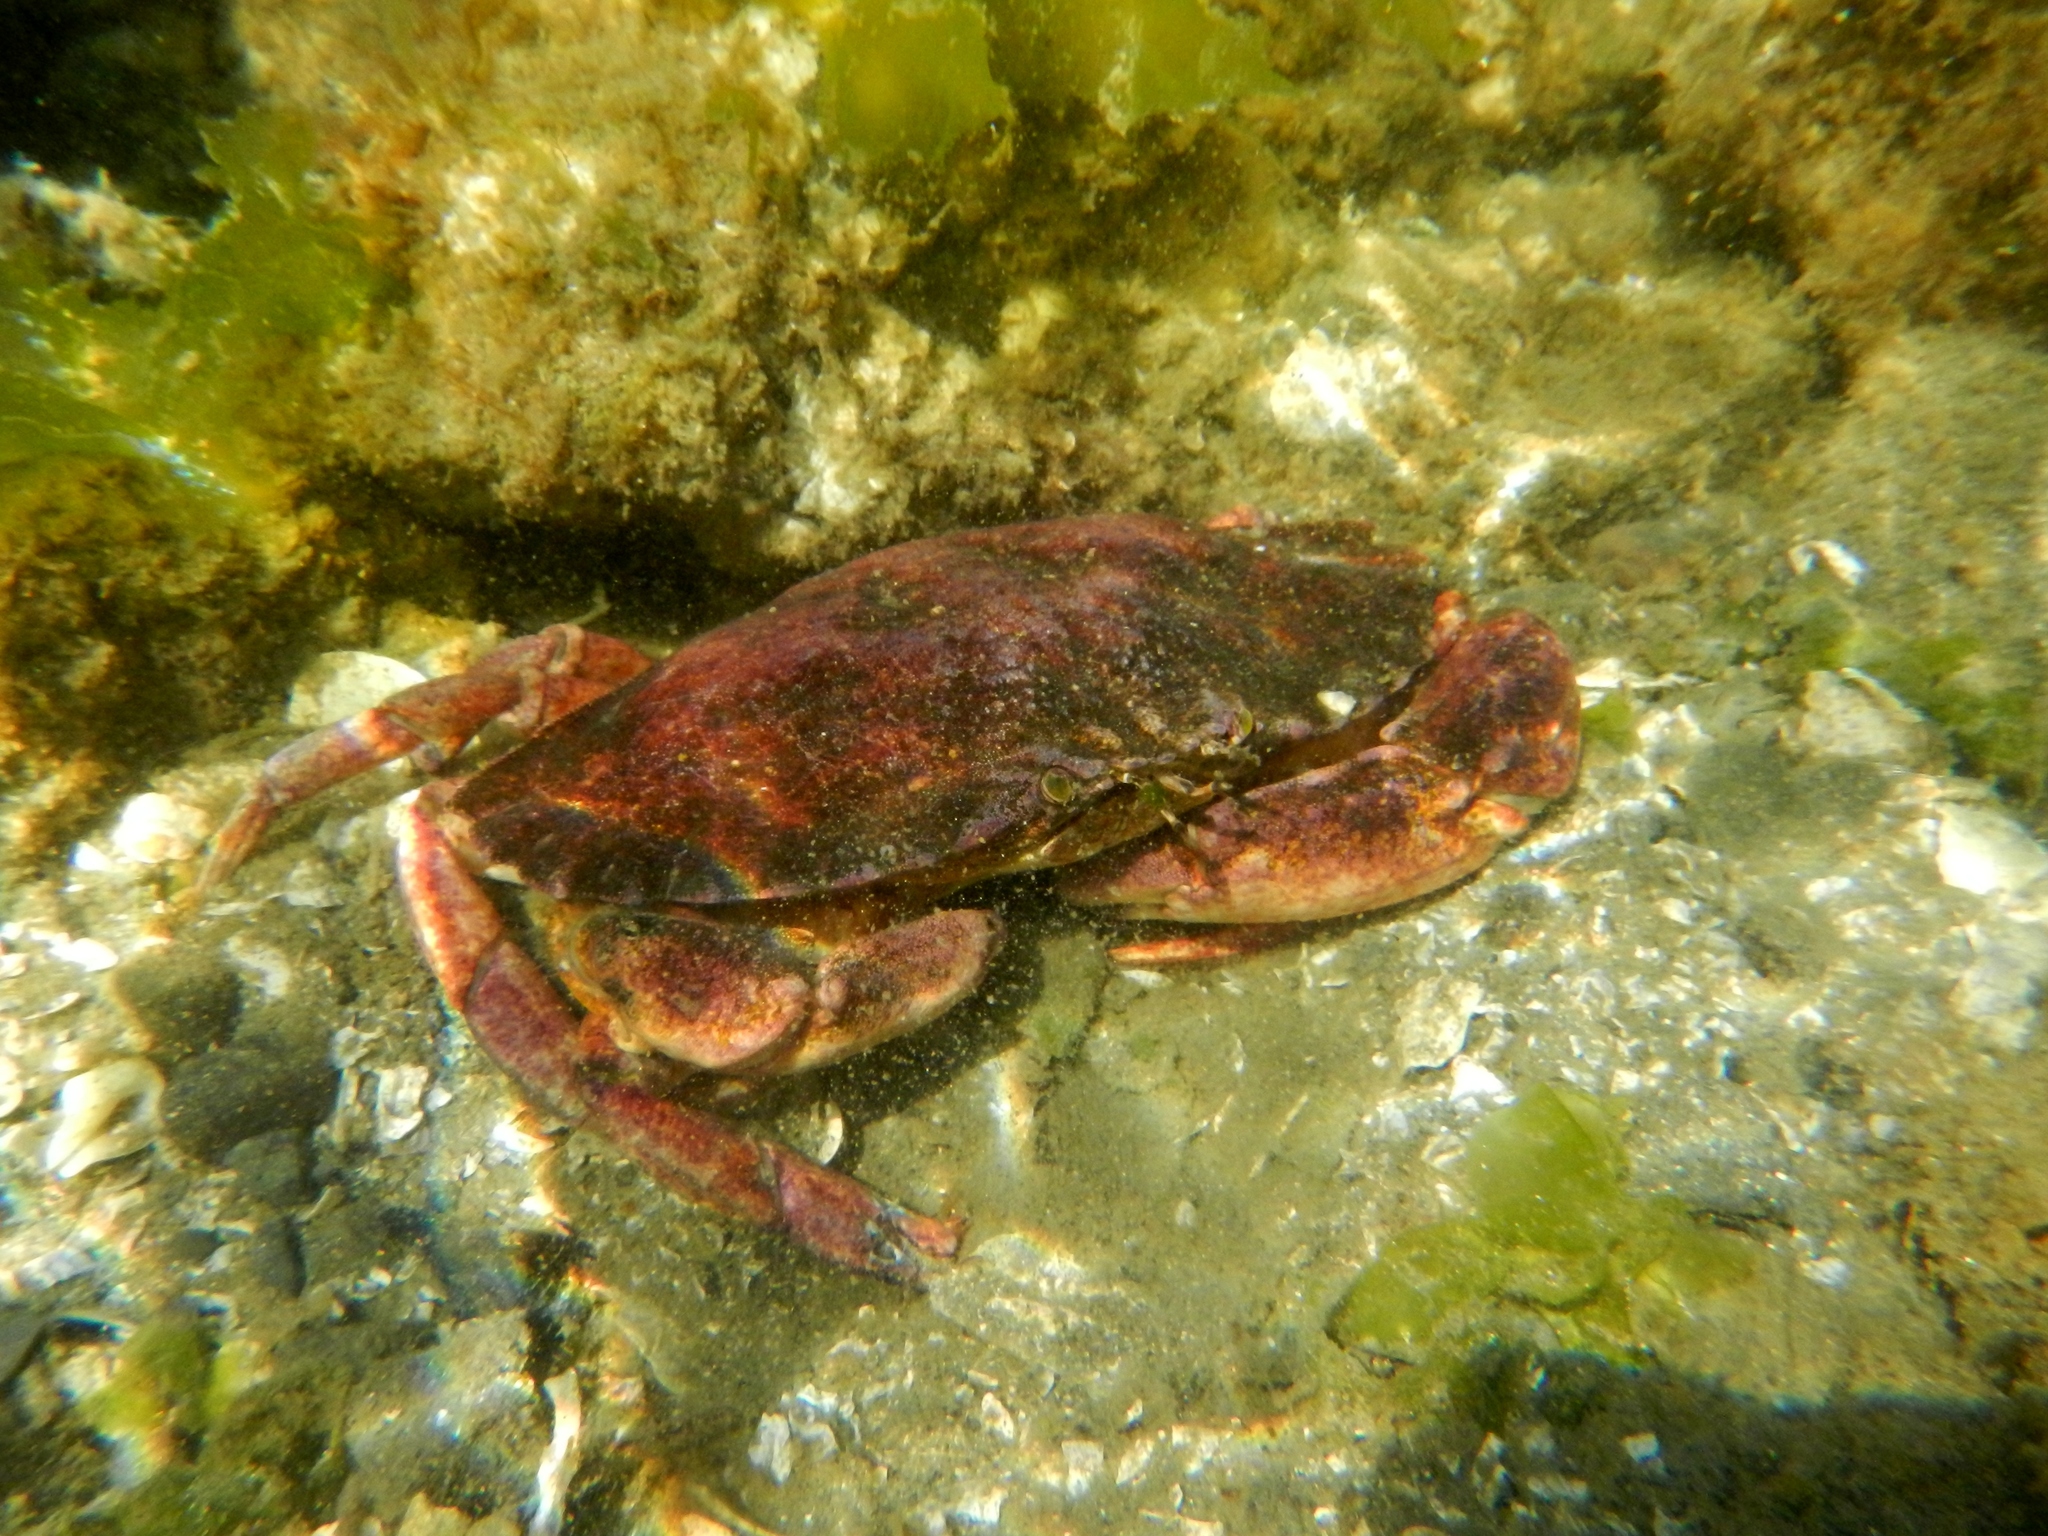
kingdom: Animalia
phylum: Arthropoda
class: Malacostraca
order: Decapoda
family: Cancridae
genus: Cancer
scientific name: Cancer productus
